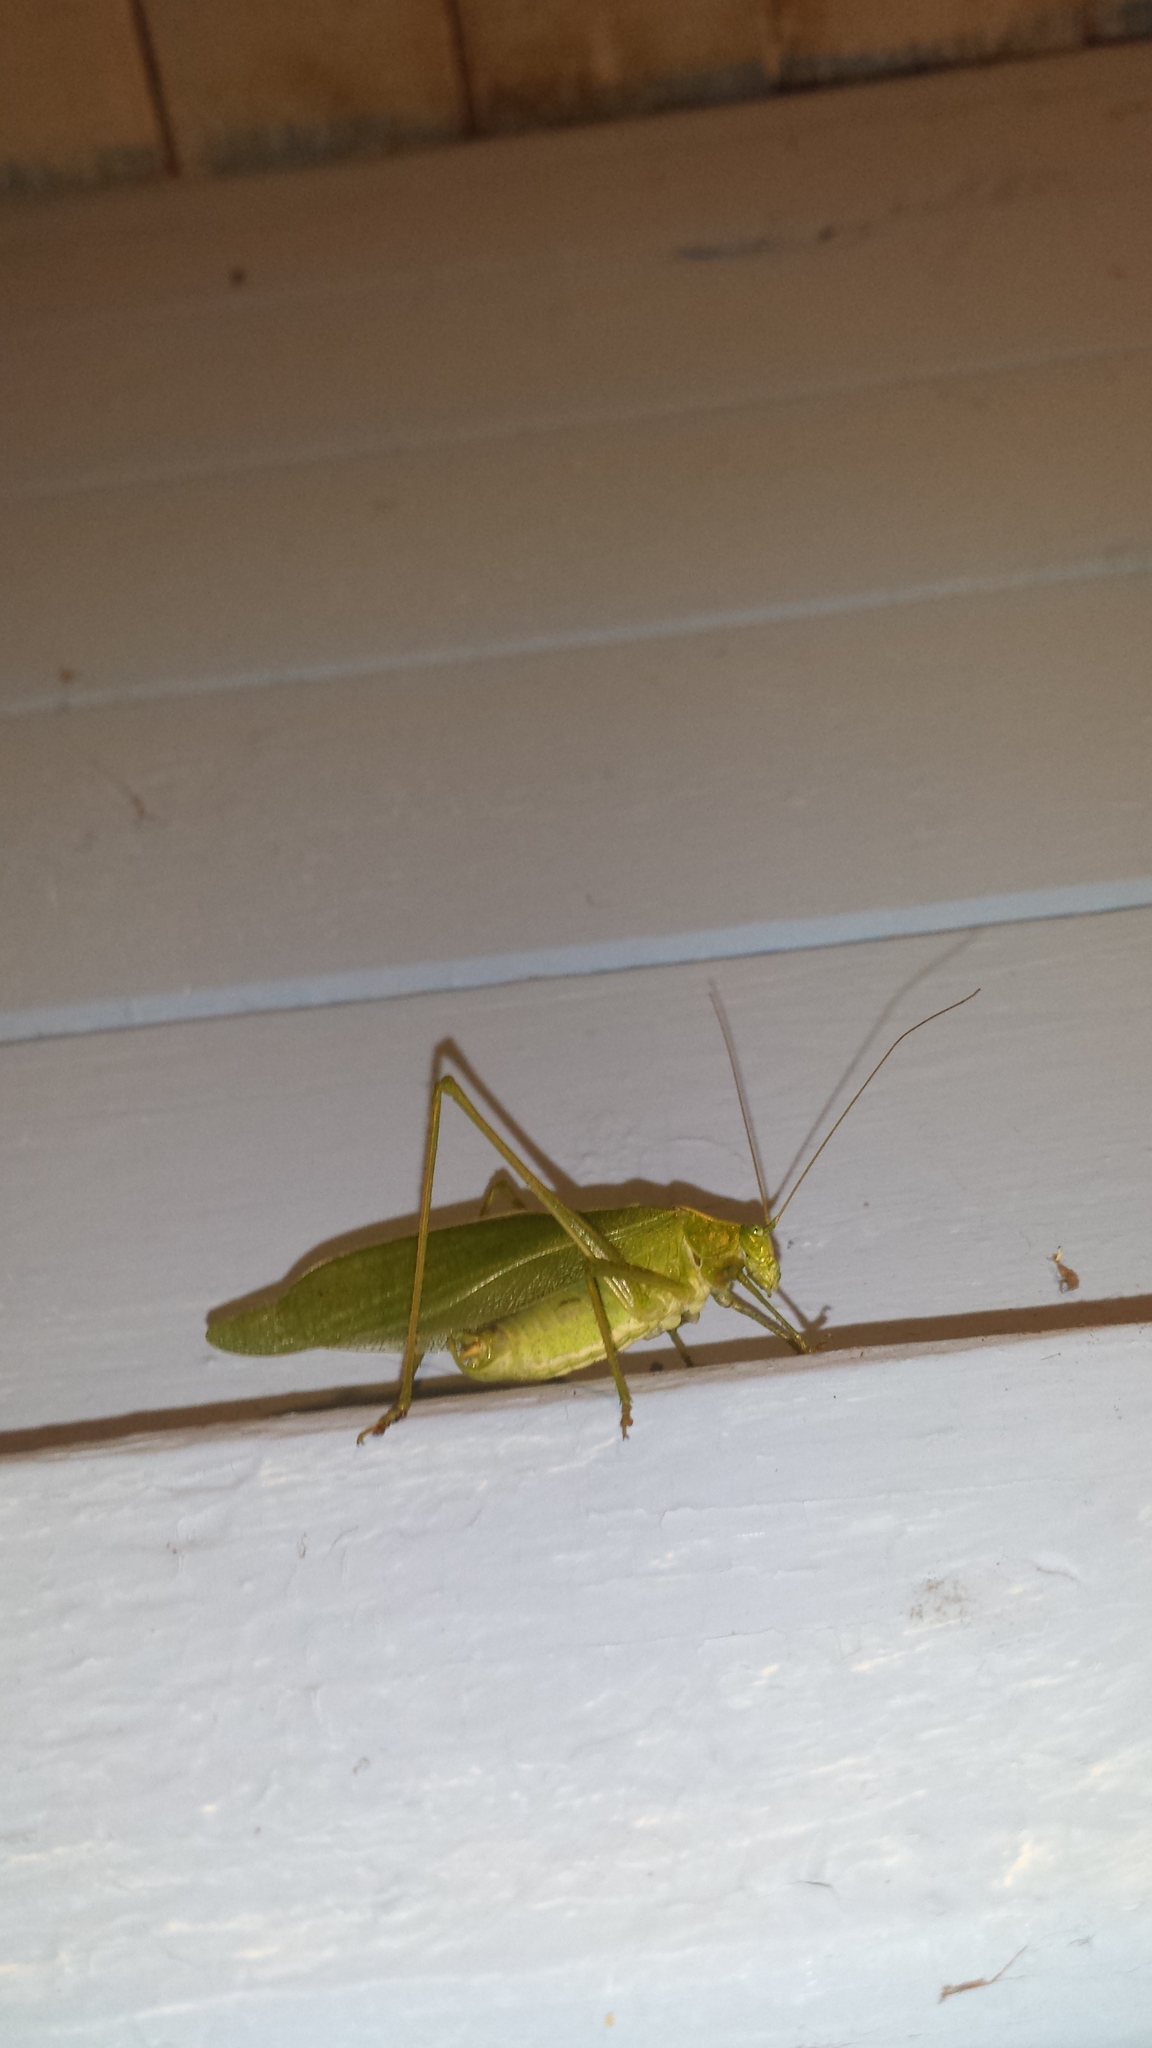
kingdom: Animalia
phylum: Arthropoda
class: Insecta
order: Orthoptera
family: Tettigoniidae
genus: Scudderia
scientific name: Scudderia pistillata
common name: Broad-winged bush-katydid
